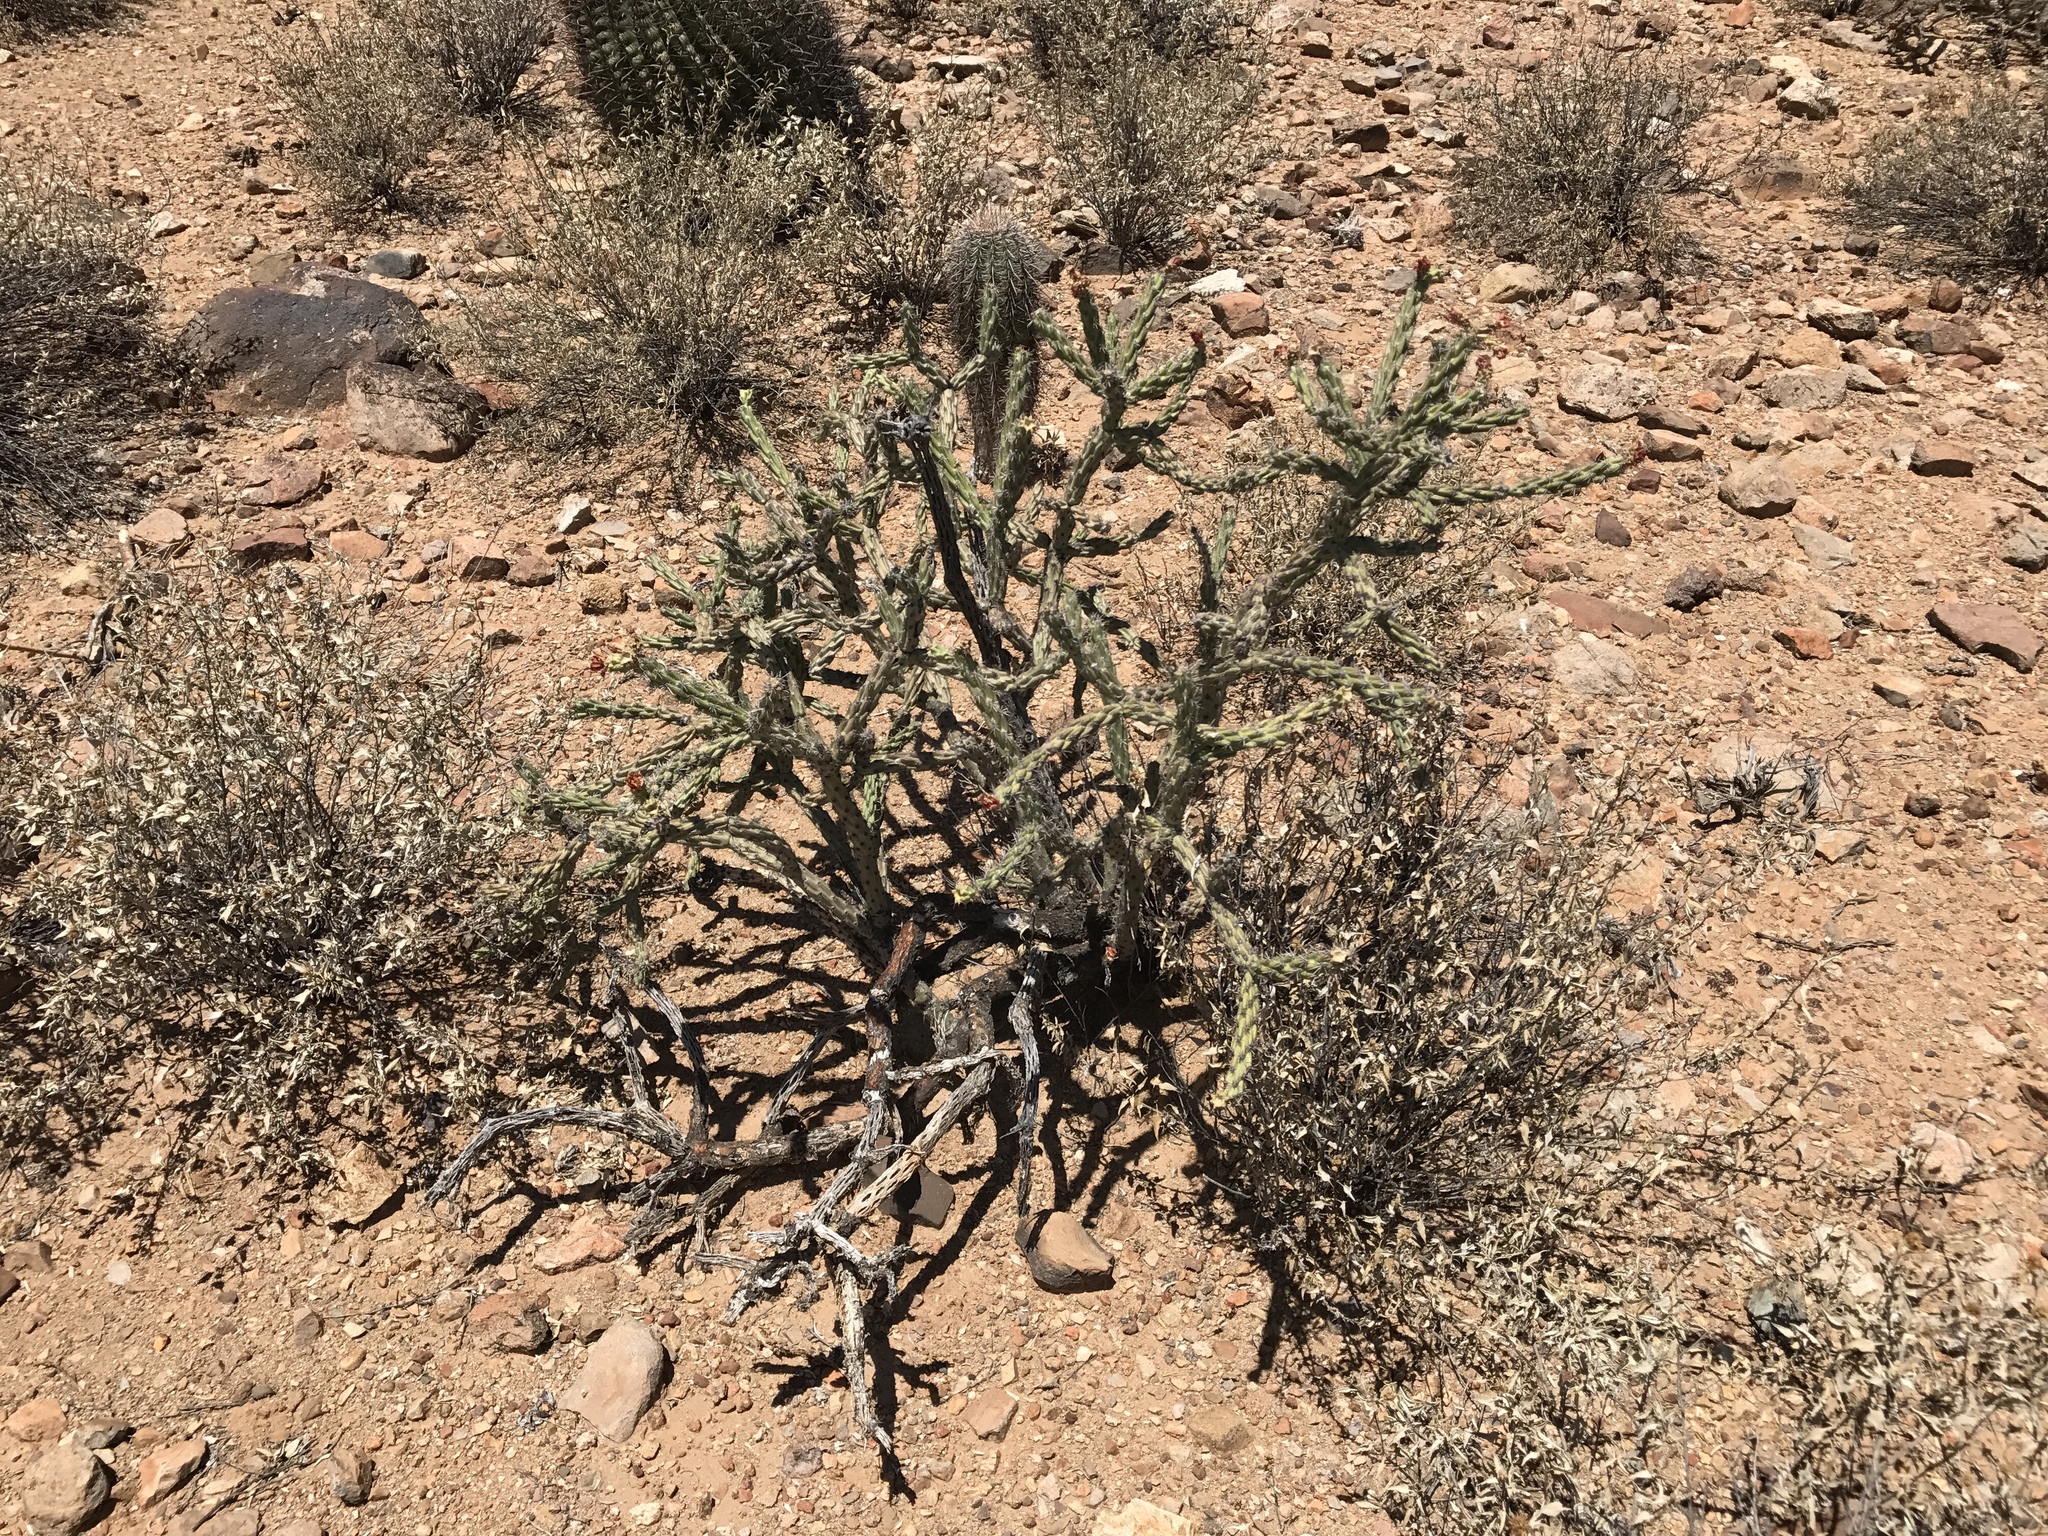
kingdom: Plantae
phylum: Tracheophyta
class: Magnoliopsida
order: Caryophyllales
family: Cactaceae
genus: Cylindropuntia
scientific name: Cylindropuntia acanthocarpa
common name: Buckhorn cholla
